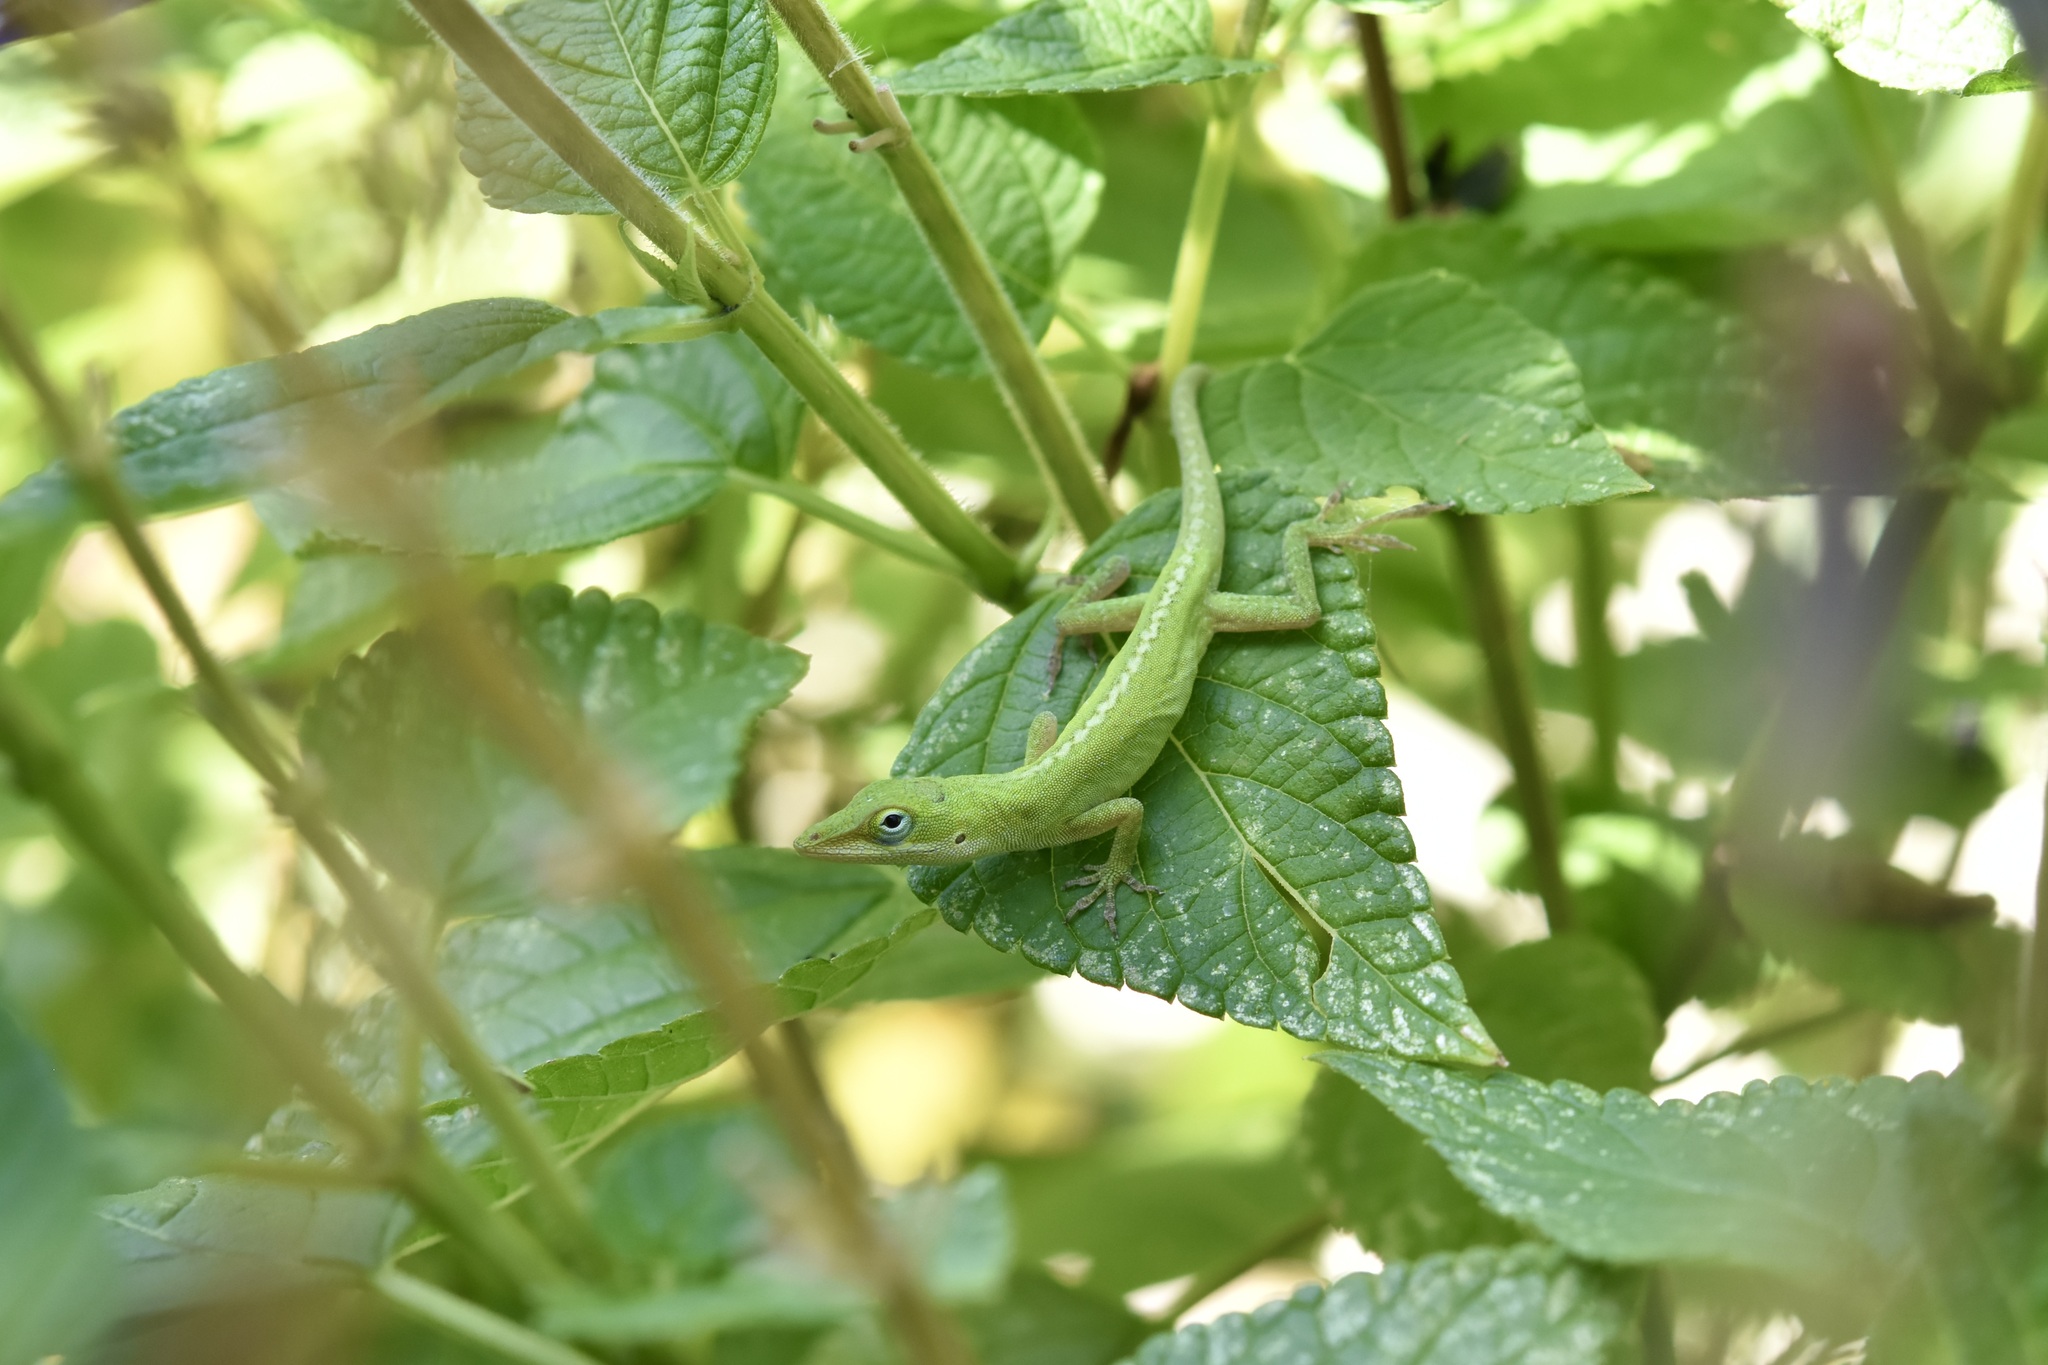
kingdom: Animalia
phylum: Chordata
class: Squamata
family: Dactyloidae
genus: Anolis
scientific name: Anolis carolinensis
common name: Green anole
